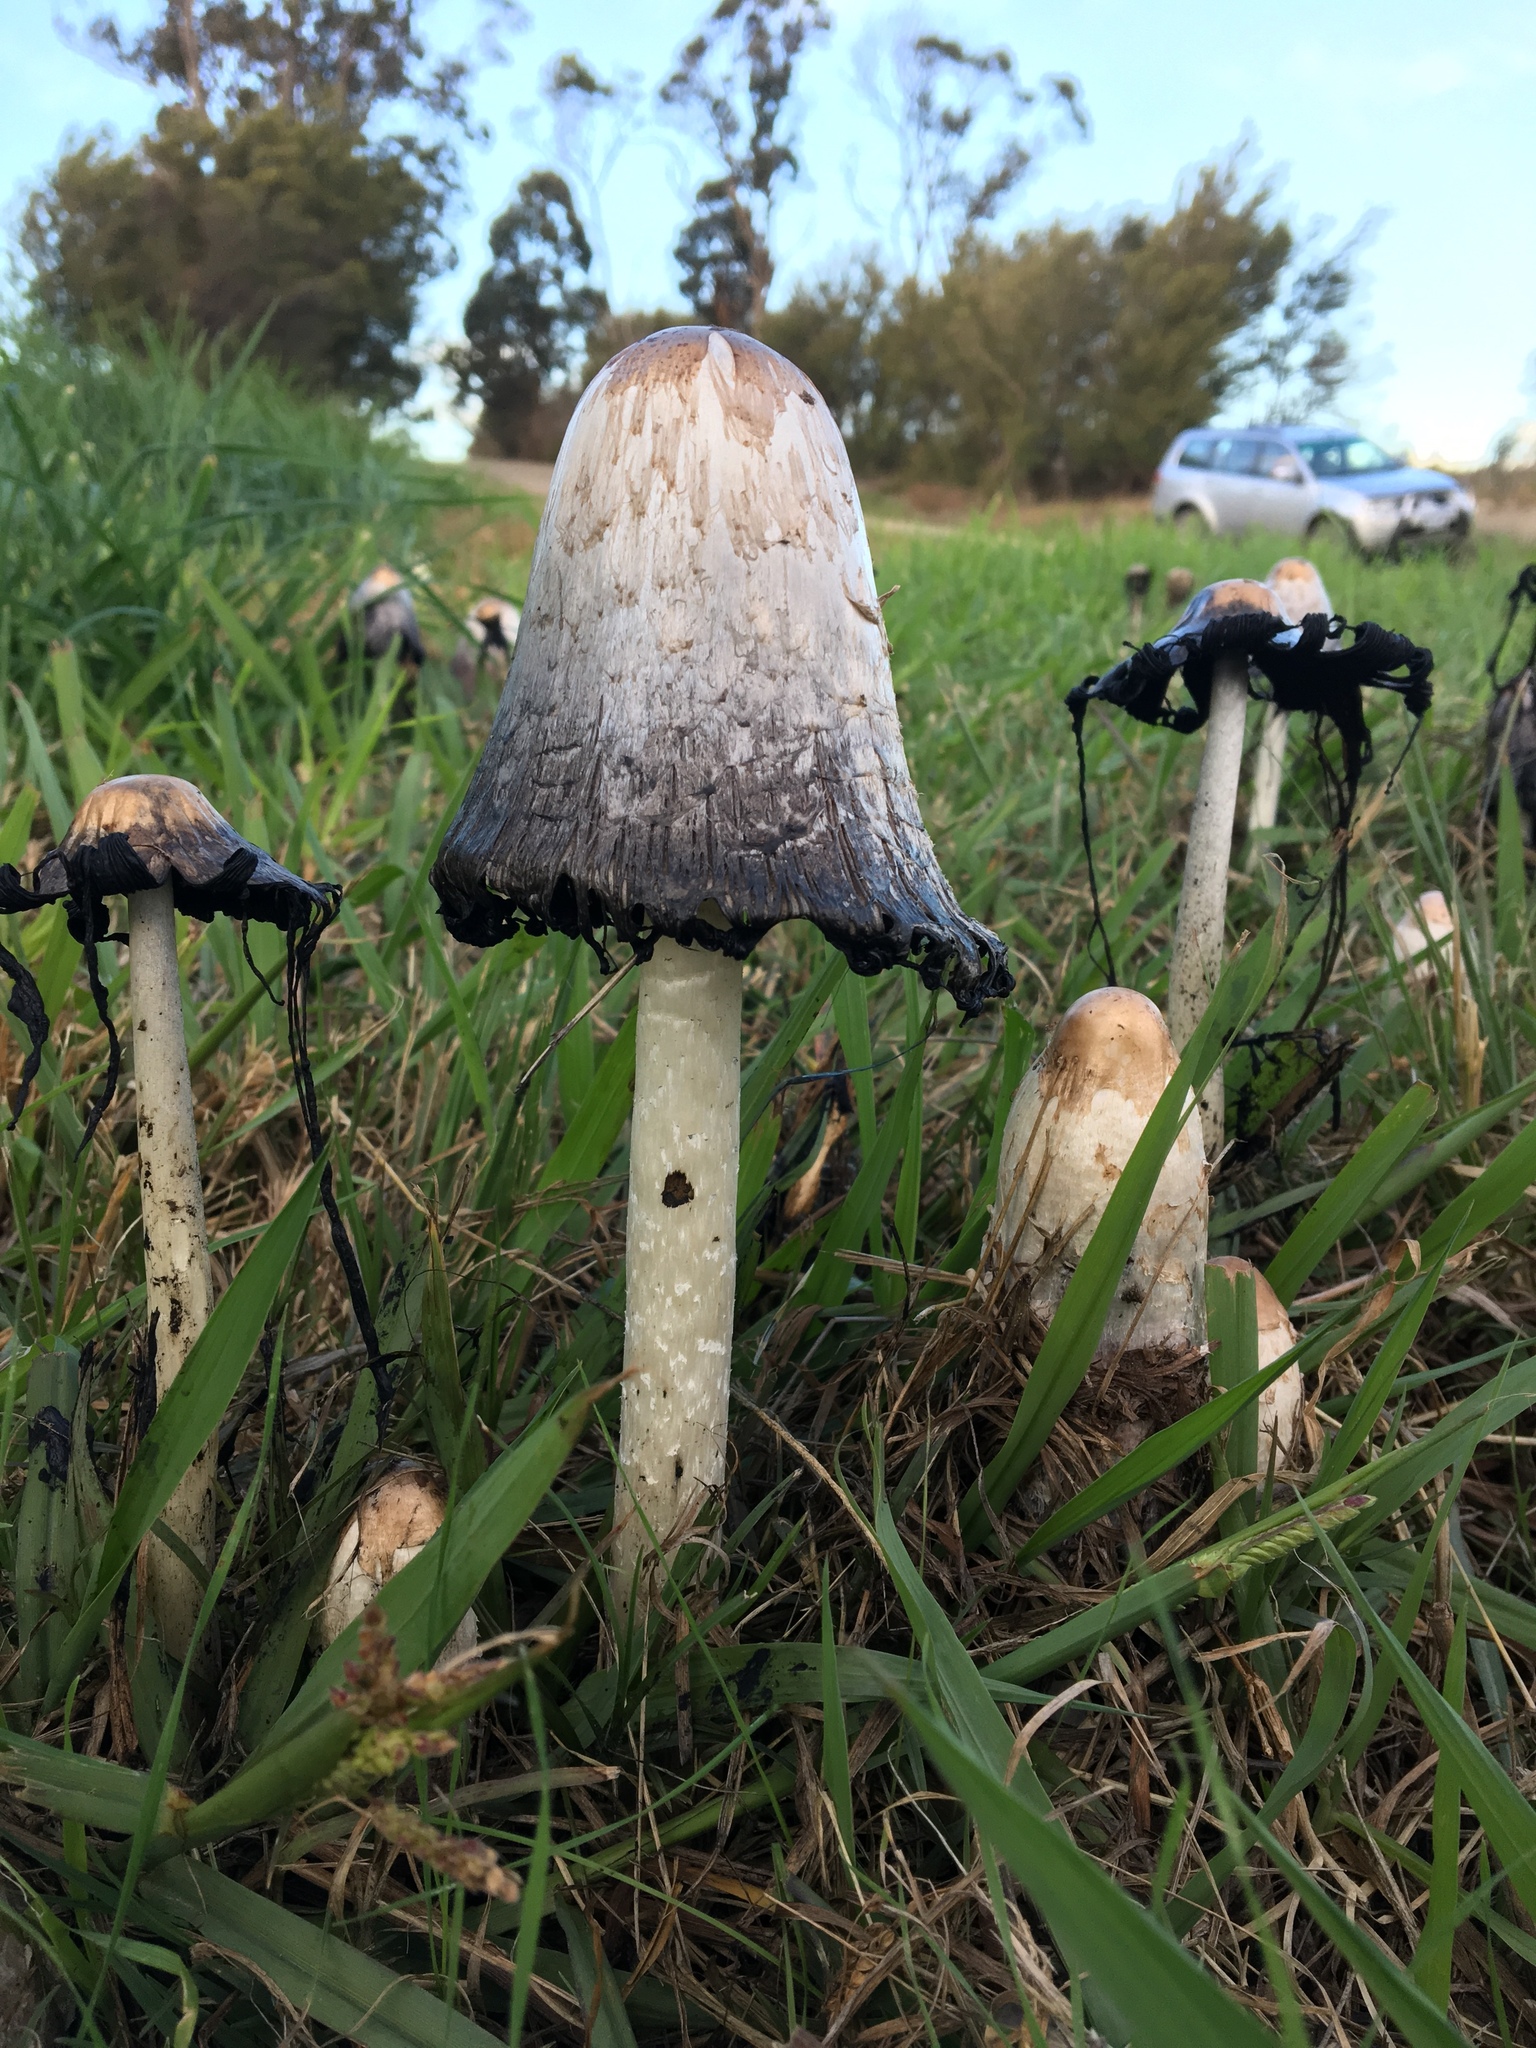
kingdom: Fungi
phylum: Basidiomycota
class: Agaricomycetes
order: Agaricales
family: Agaricaceae
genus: Coprinus
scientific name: Coprinus comatus
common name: Lawyer's wig
